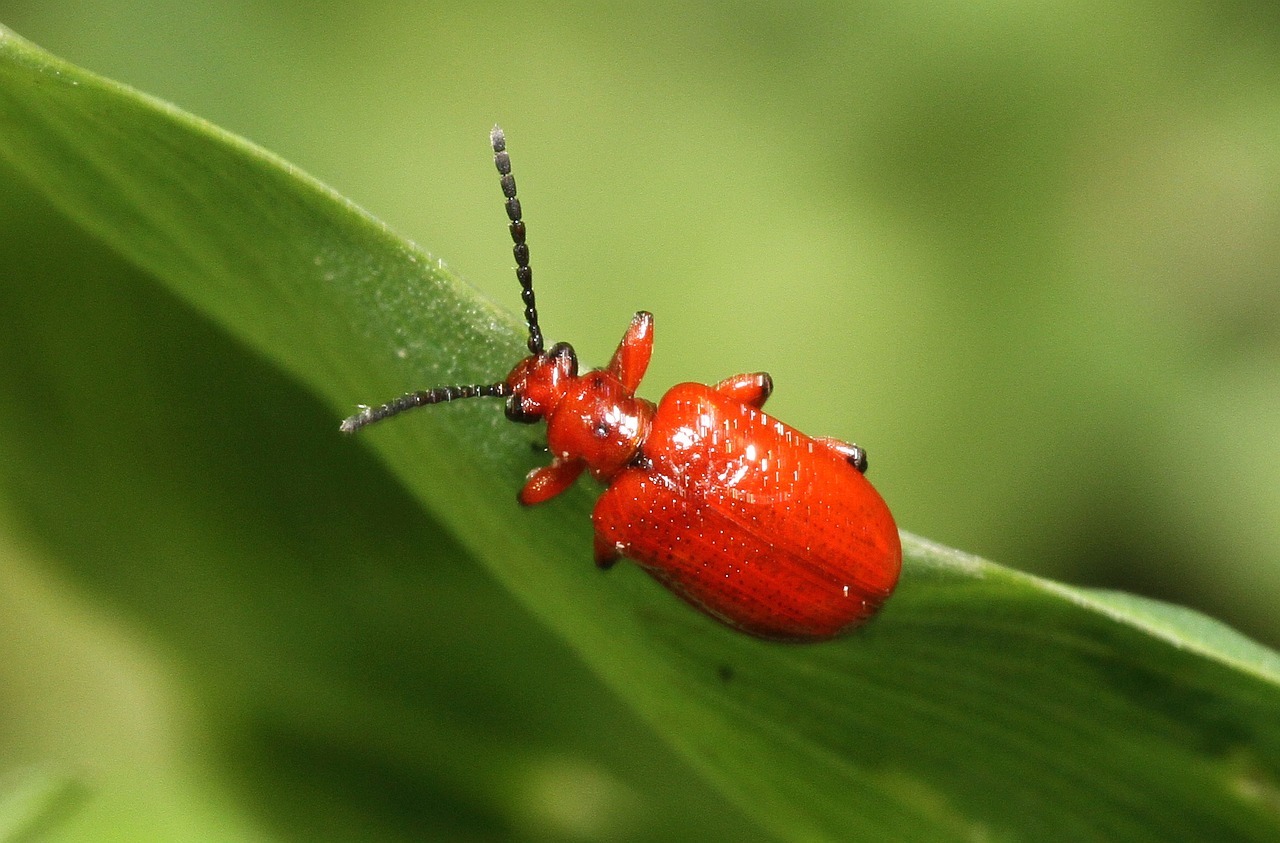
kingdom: Animalia
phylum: Arthropoda
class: Insecta
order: Coleoptera
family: Chrysomelidae
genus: Lilioceris
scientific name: Lilioceris merdigera
